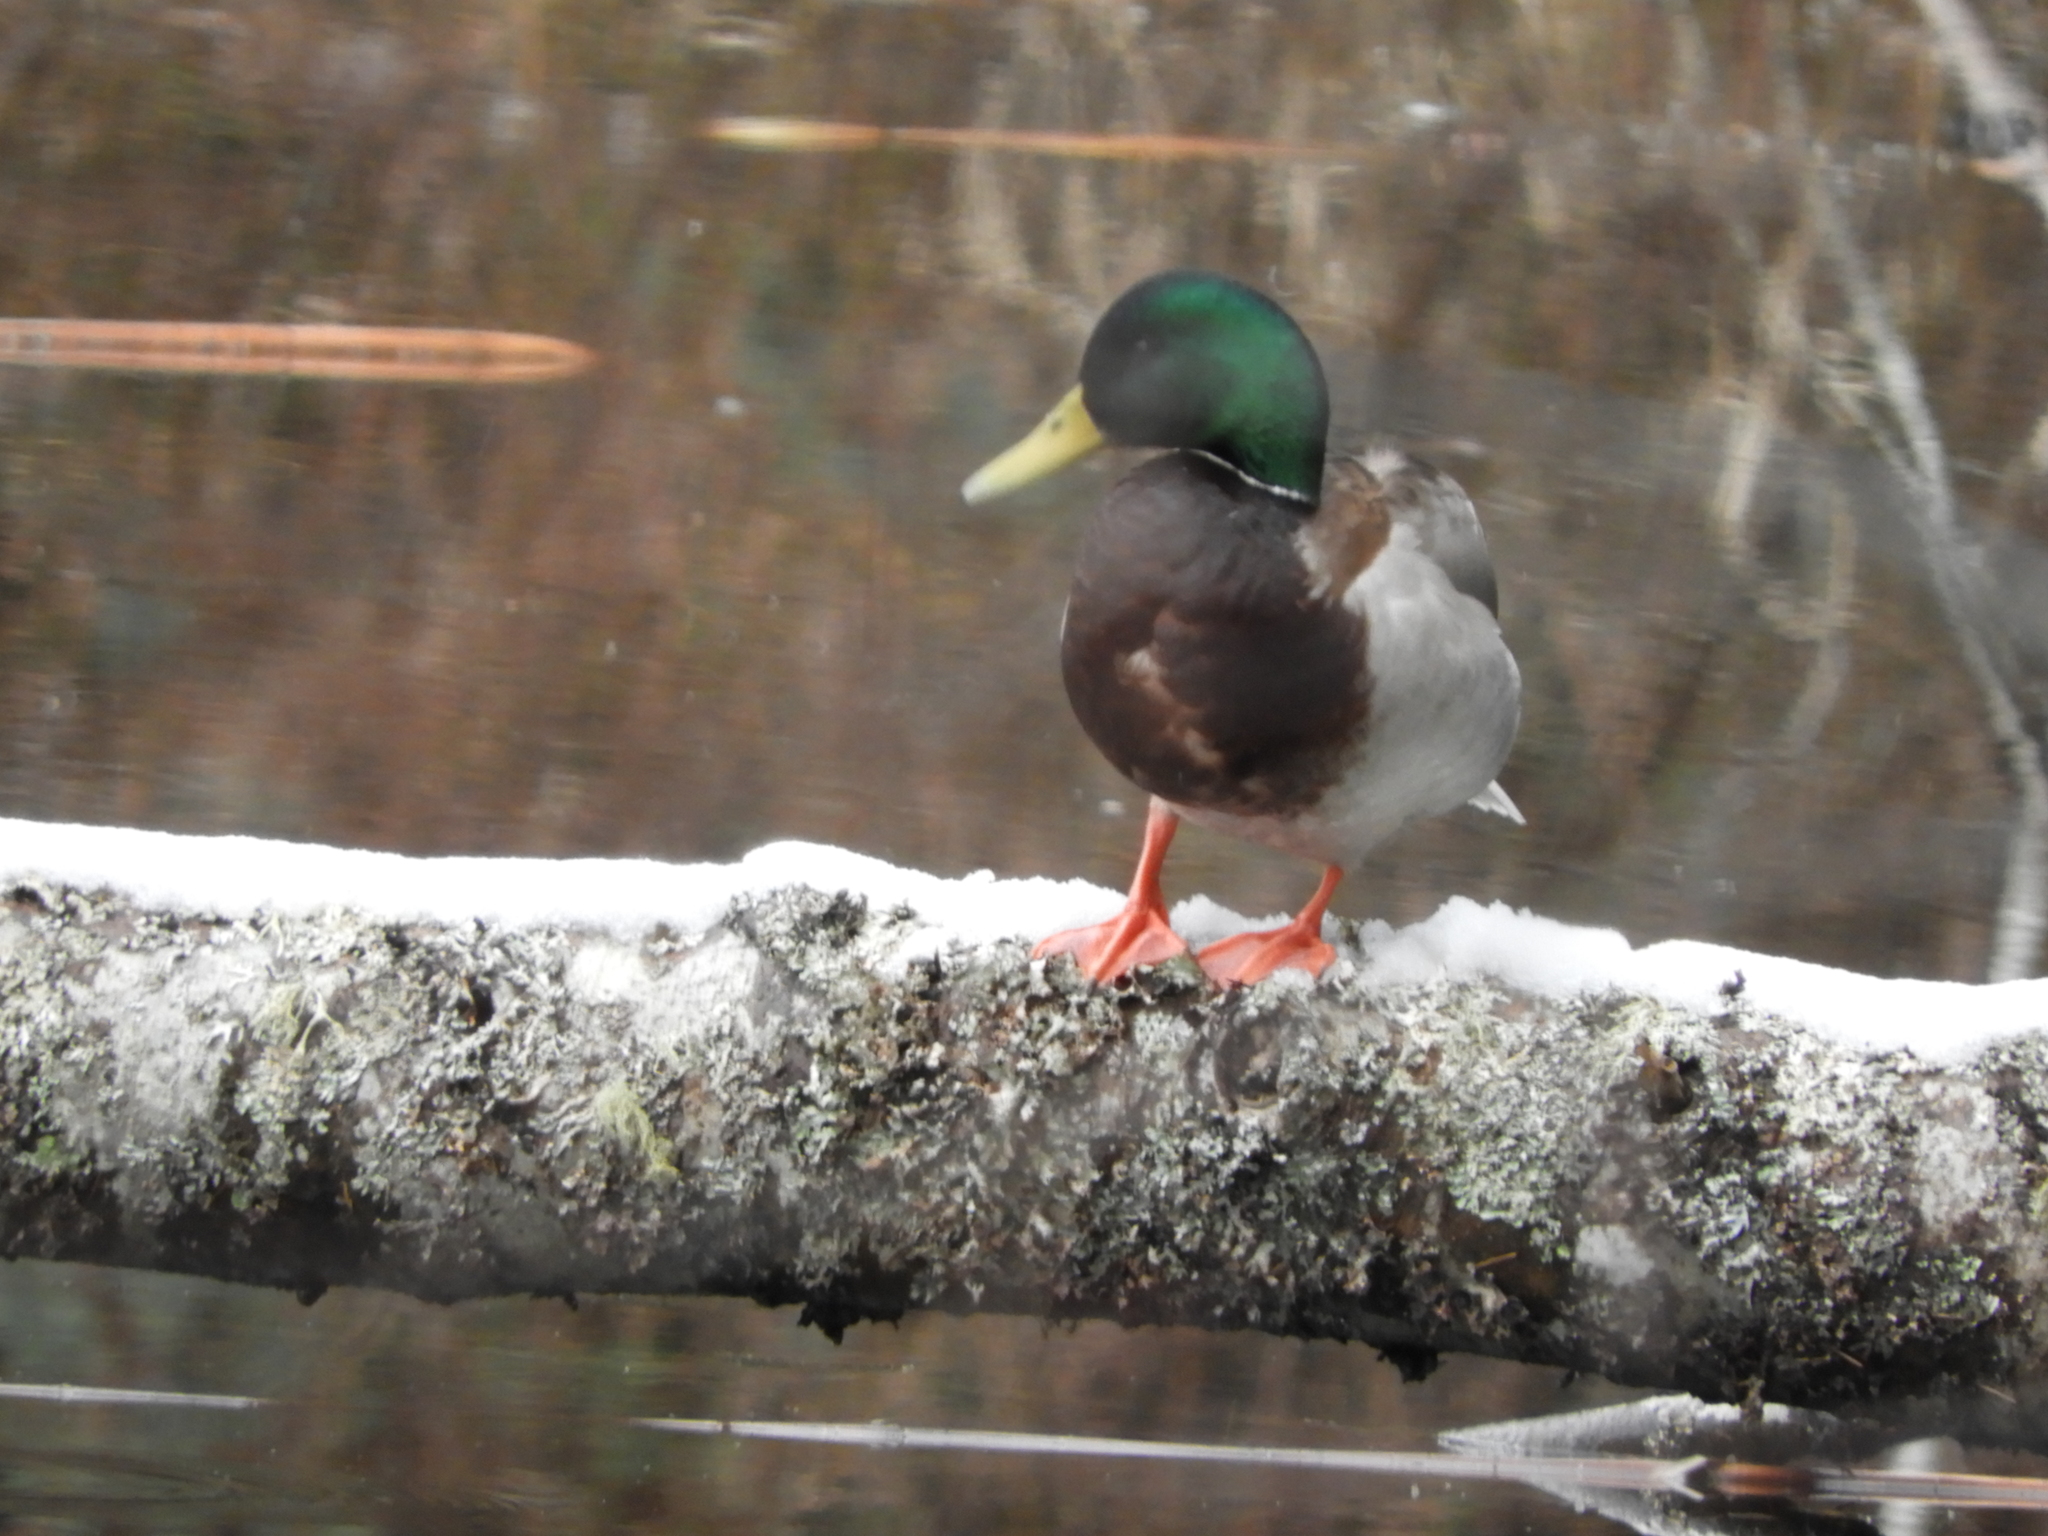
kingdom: Animalia
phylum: Chordata
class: Aves
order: Anseriformes
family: Anatidae
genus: Anas
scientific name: Anas platyrhynchos
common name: Mallard
